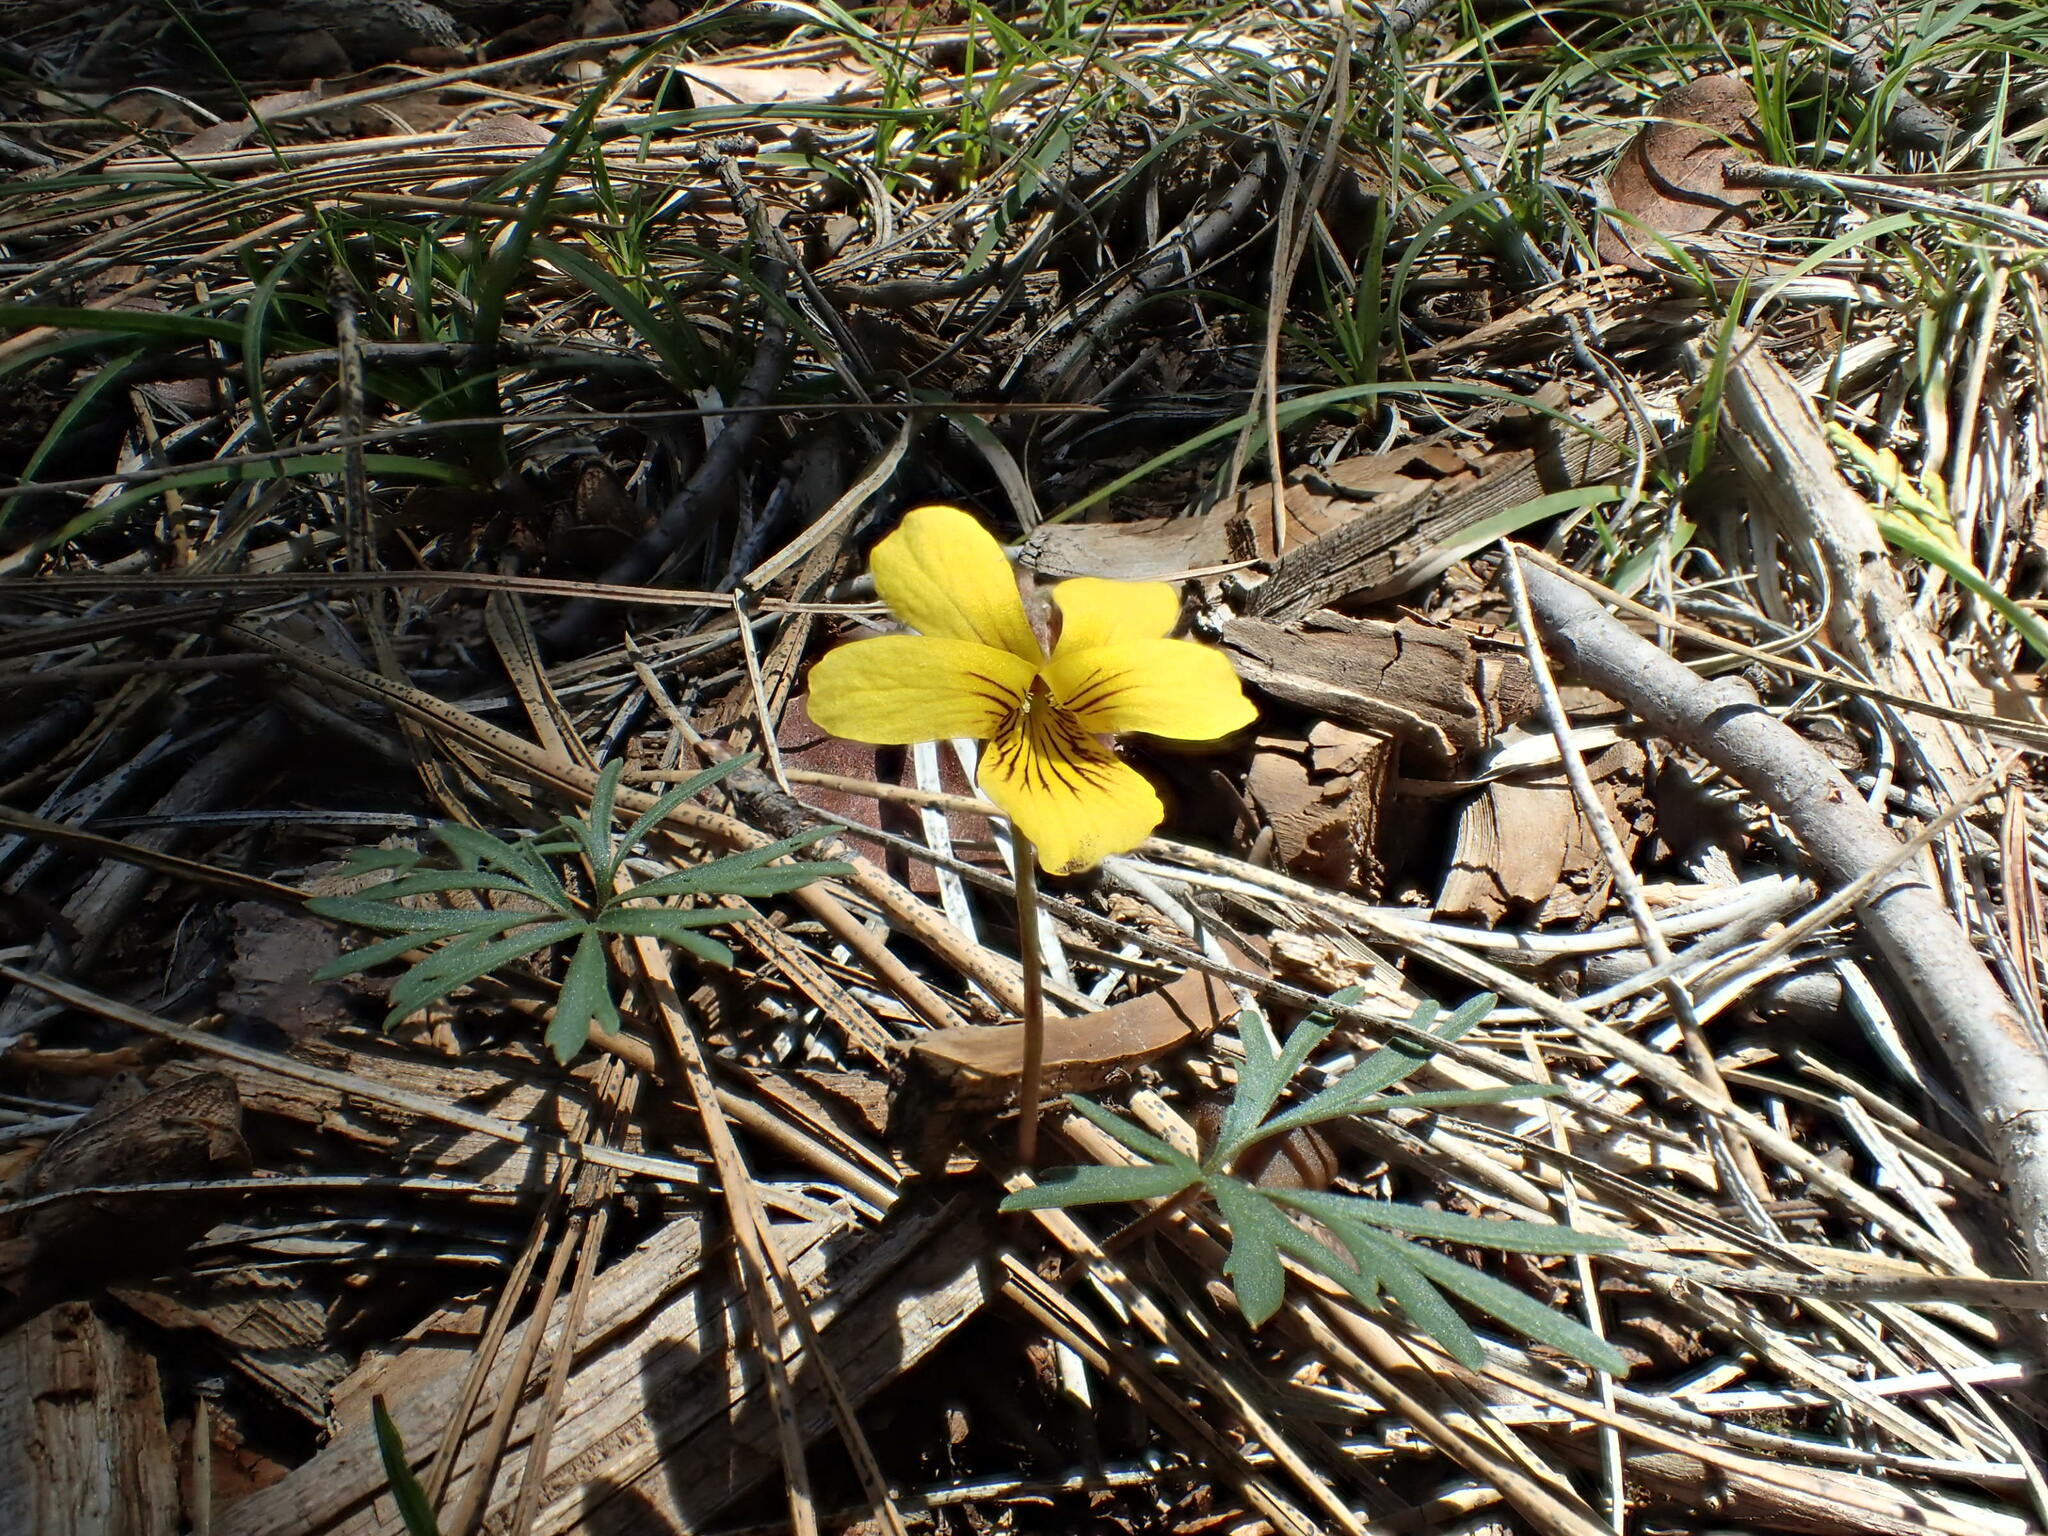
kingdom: Plantae
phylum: Tracheophyta
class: Magnoliopsida
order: Malpighiales
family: Violaceae
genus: Viola
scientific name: Viola sheltonii
